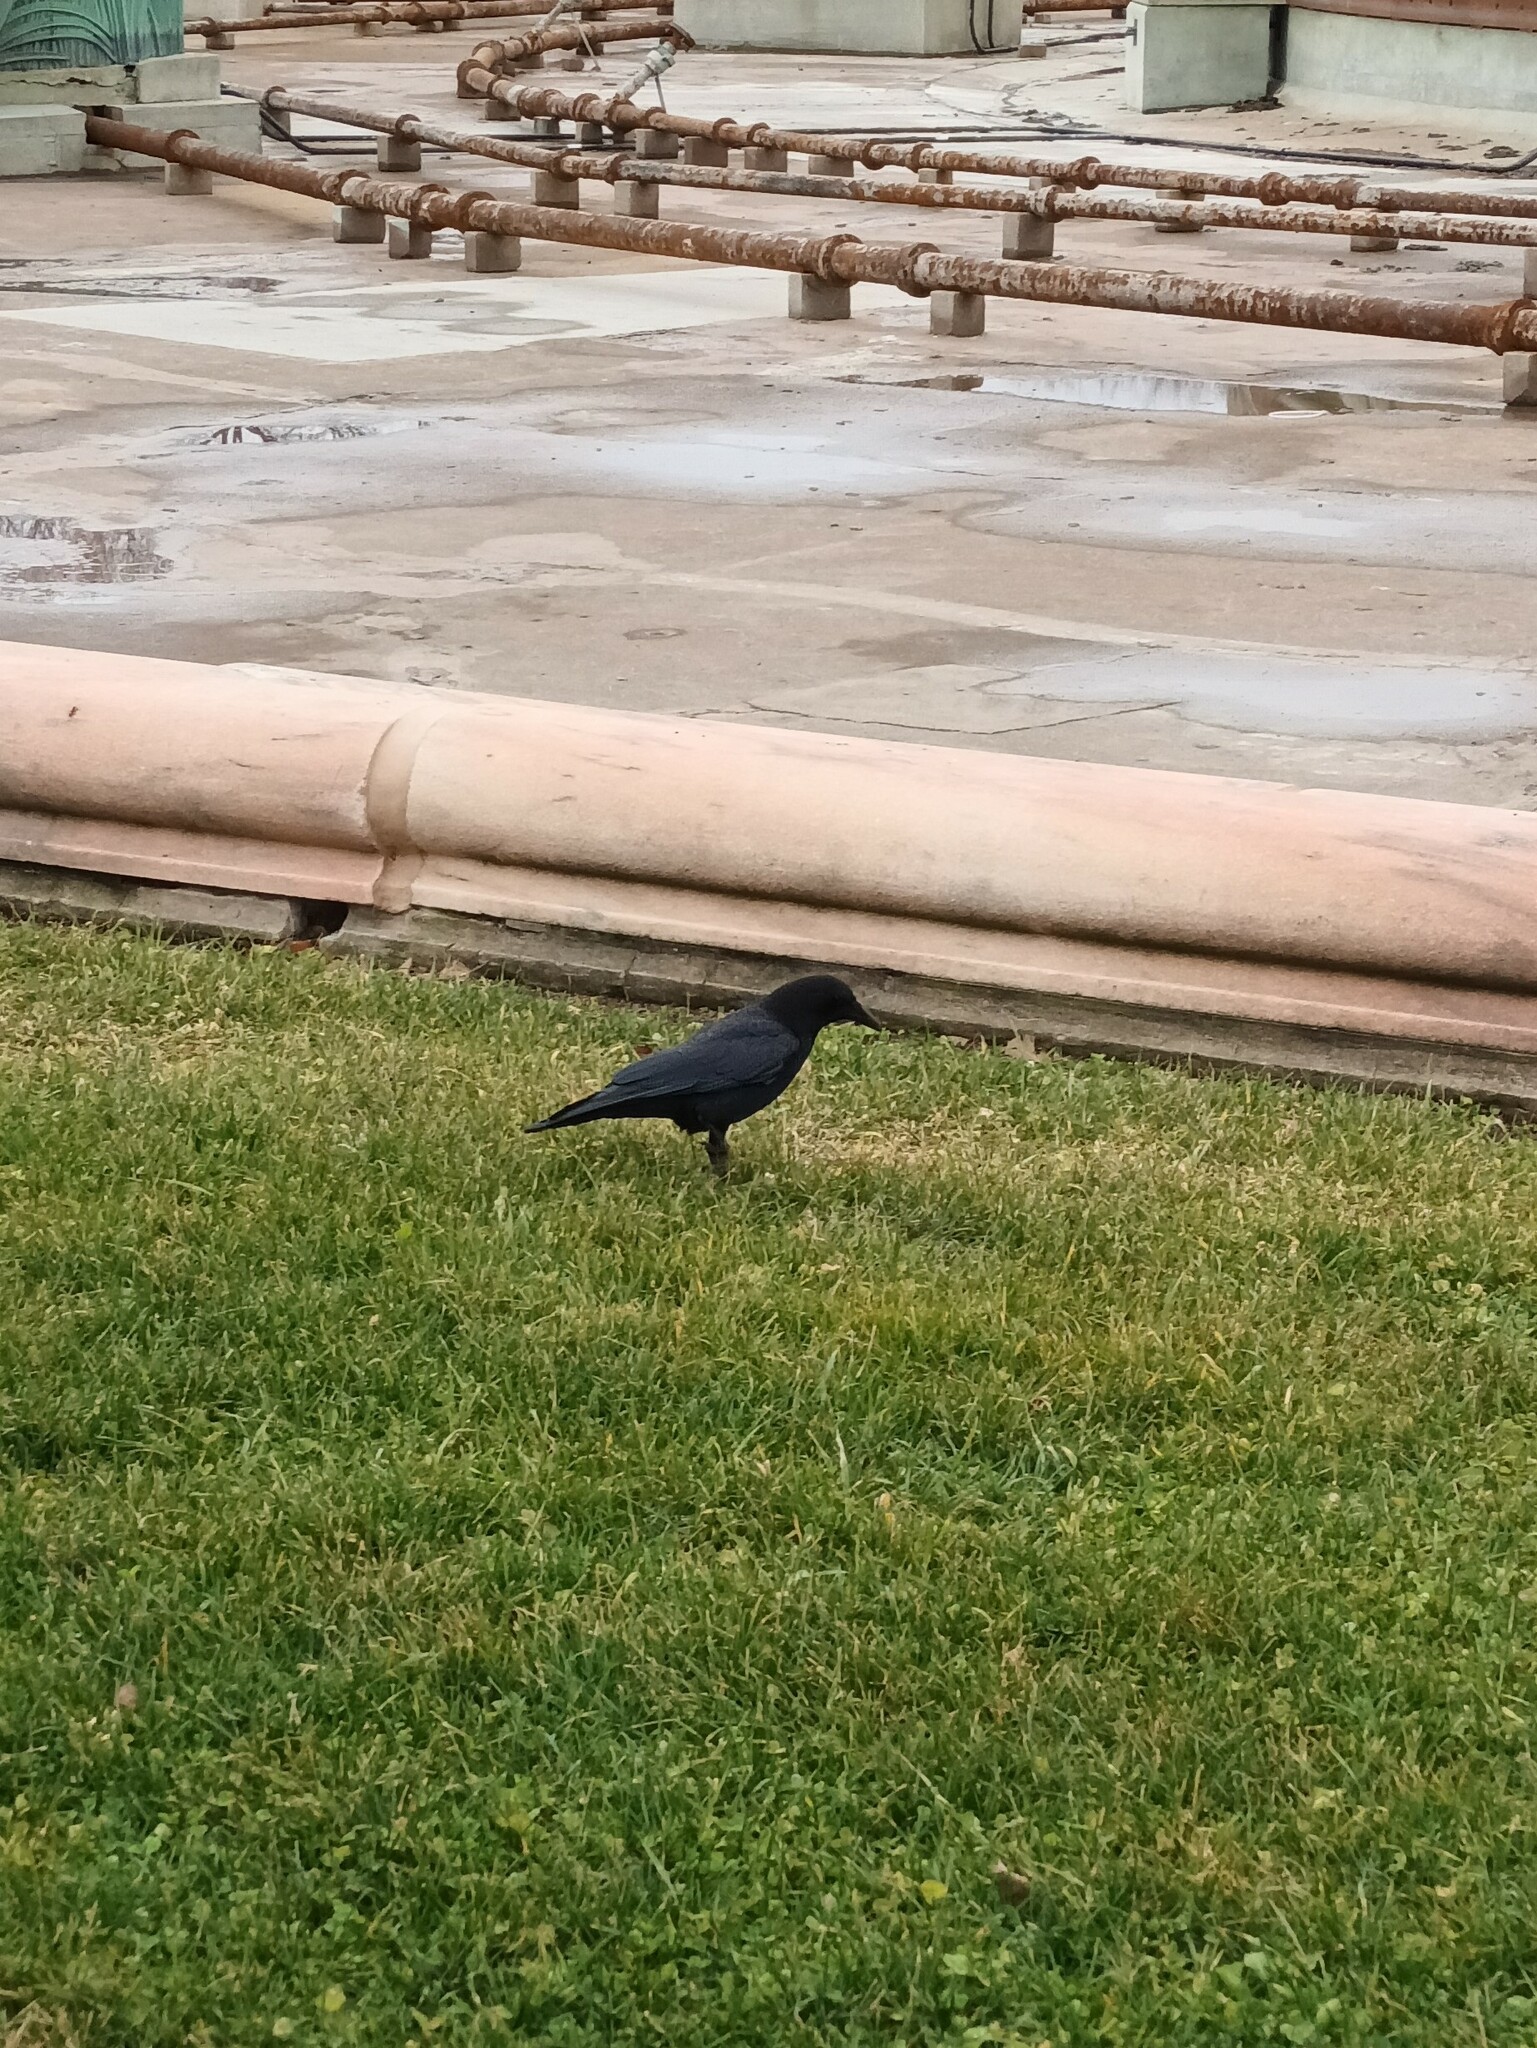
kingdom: Animalia
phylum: Chordata
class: Aves
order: Passeriformes
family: Corvidae
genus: Corvus
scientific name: Corvus brachyrhynchos
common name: American crow
